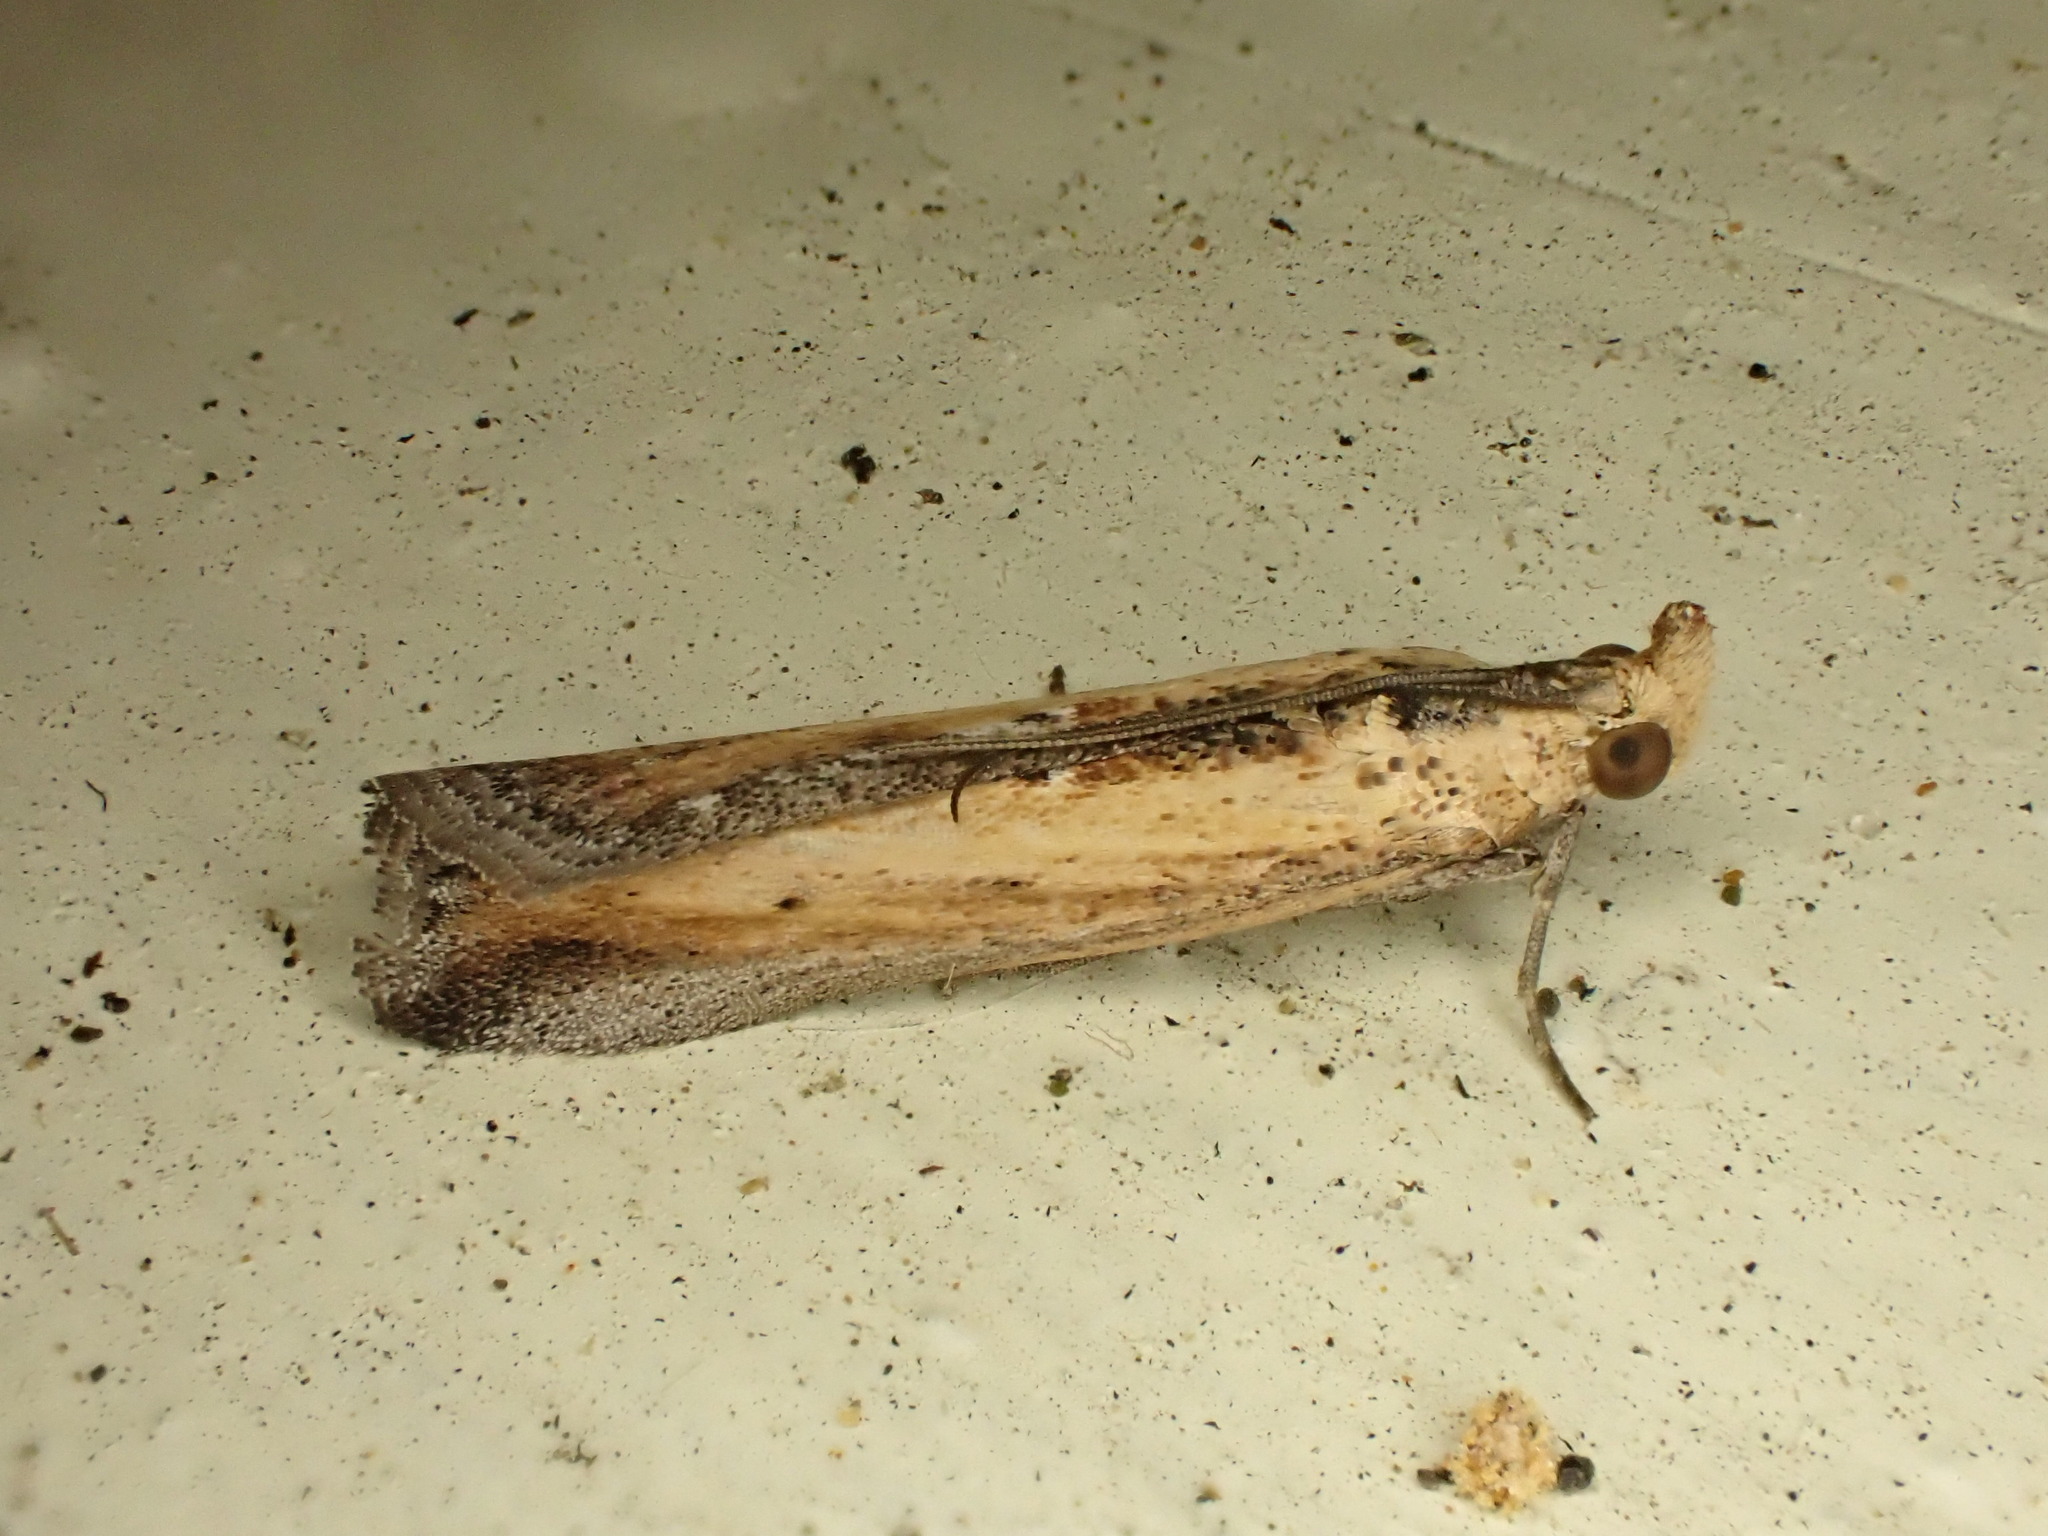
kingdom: Animalia
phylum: Arthropoda
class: Insecta
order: Lepidoptera
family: Pyralidae
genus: Morosaphycita
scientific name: Morosaphycita oculiferella
